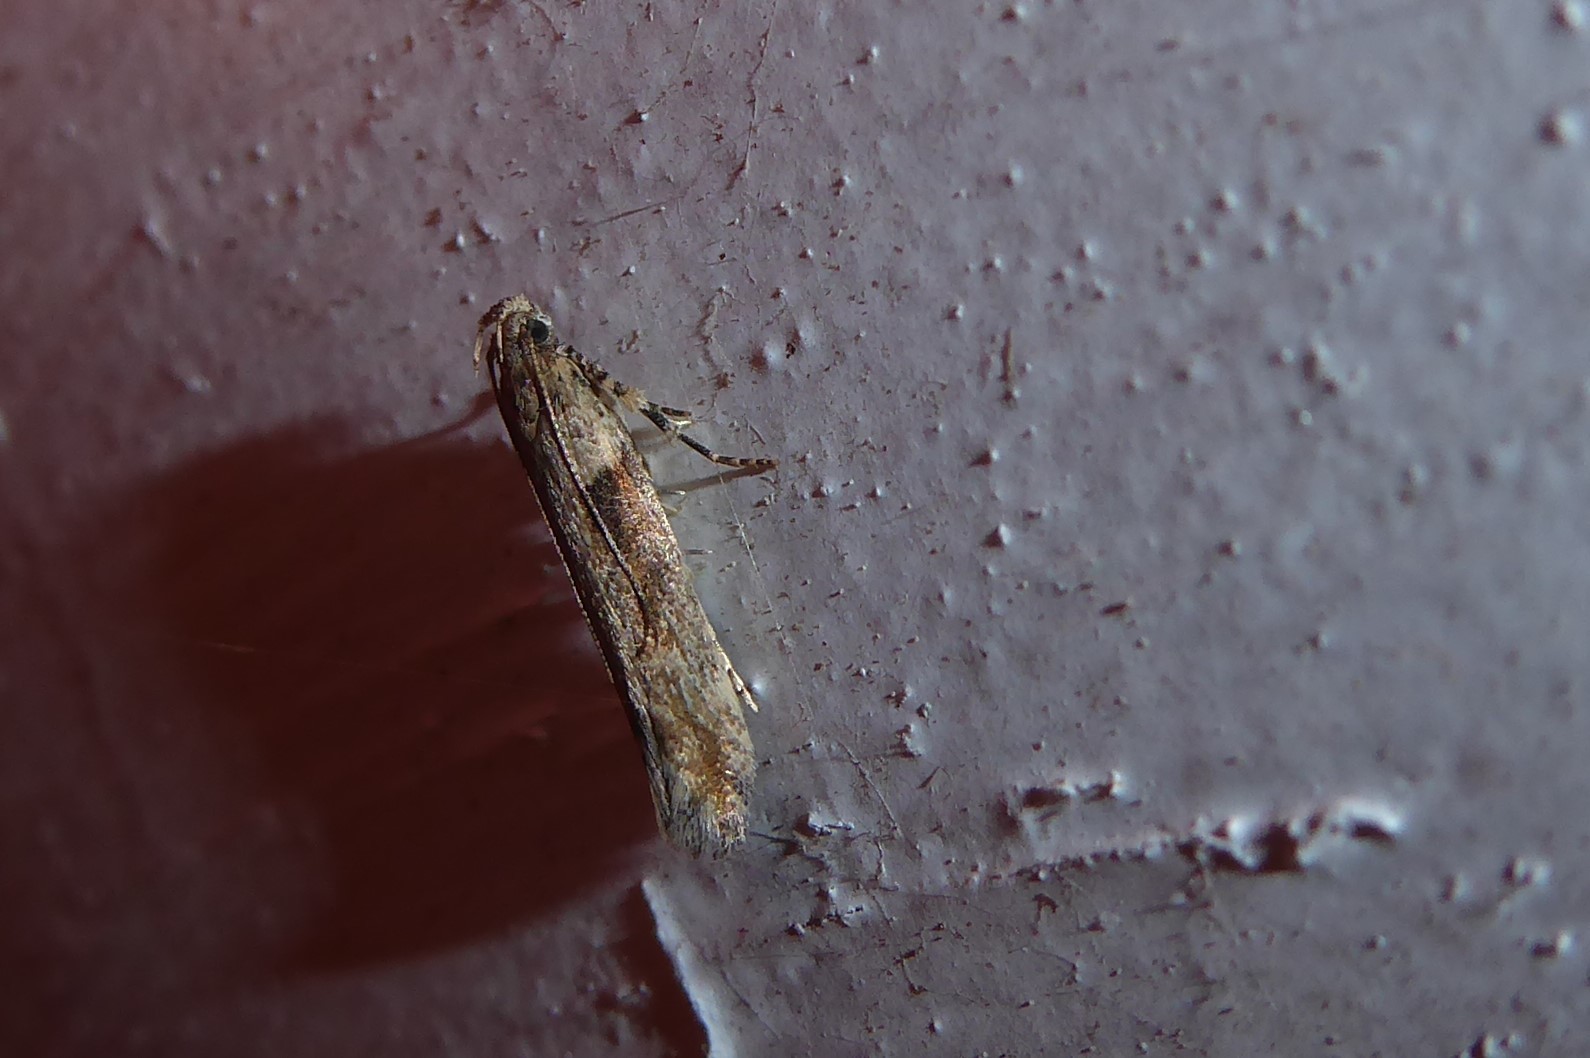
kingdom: Animalia
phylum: Arthropoda
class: Insecta
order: Lepidoptera
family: Gelechiidae
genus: Symmetrischema
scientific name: Symmetrischema tangolias
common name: Moth
